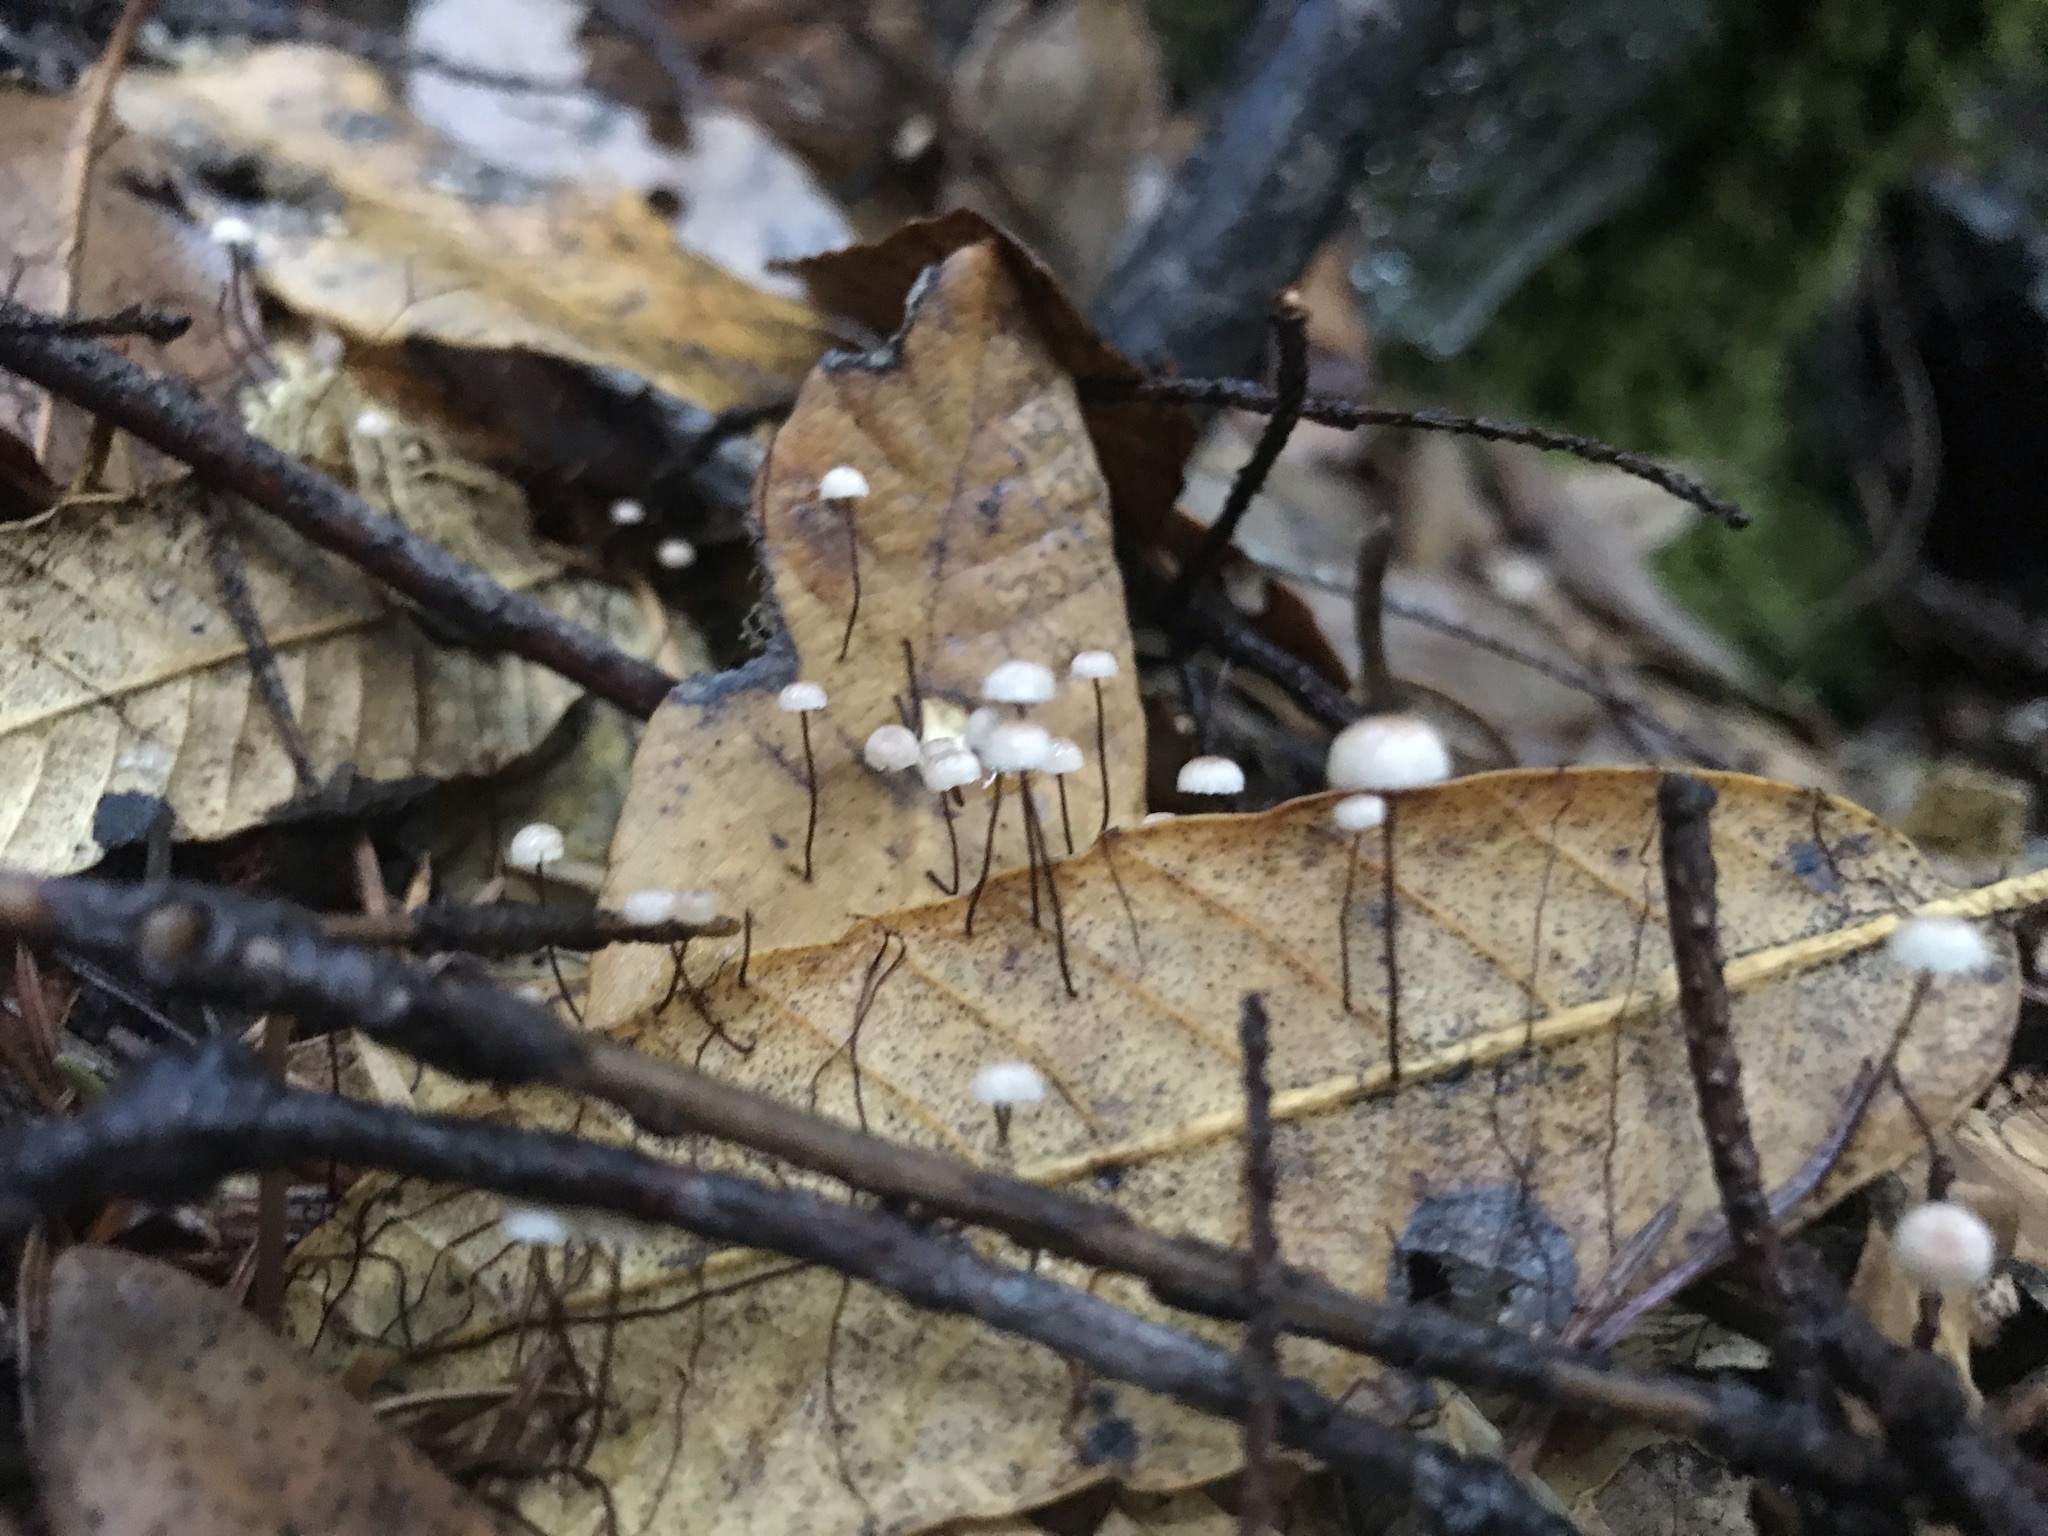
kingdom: Fungi
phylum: Basidiomycota
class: Agaricomycetes
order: Agaricales
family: Omphalotaceae
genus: Collybiopsis
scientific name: Collybiopsis quercophila
